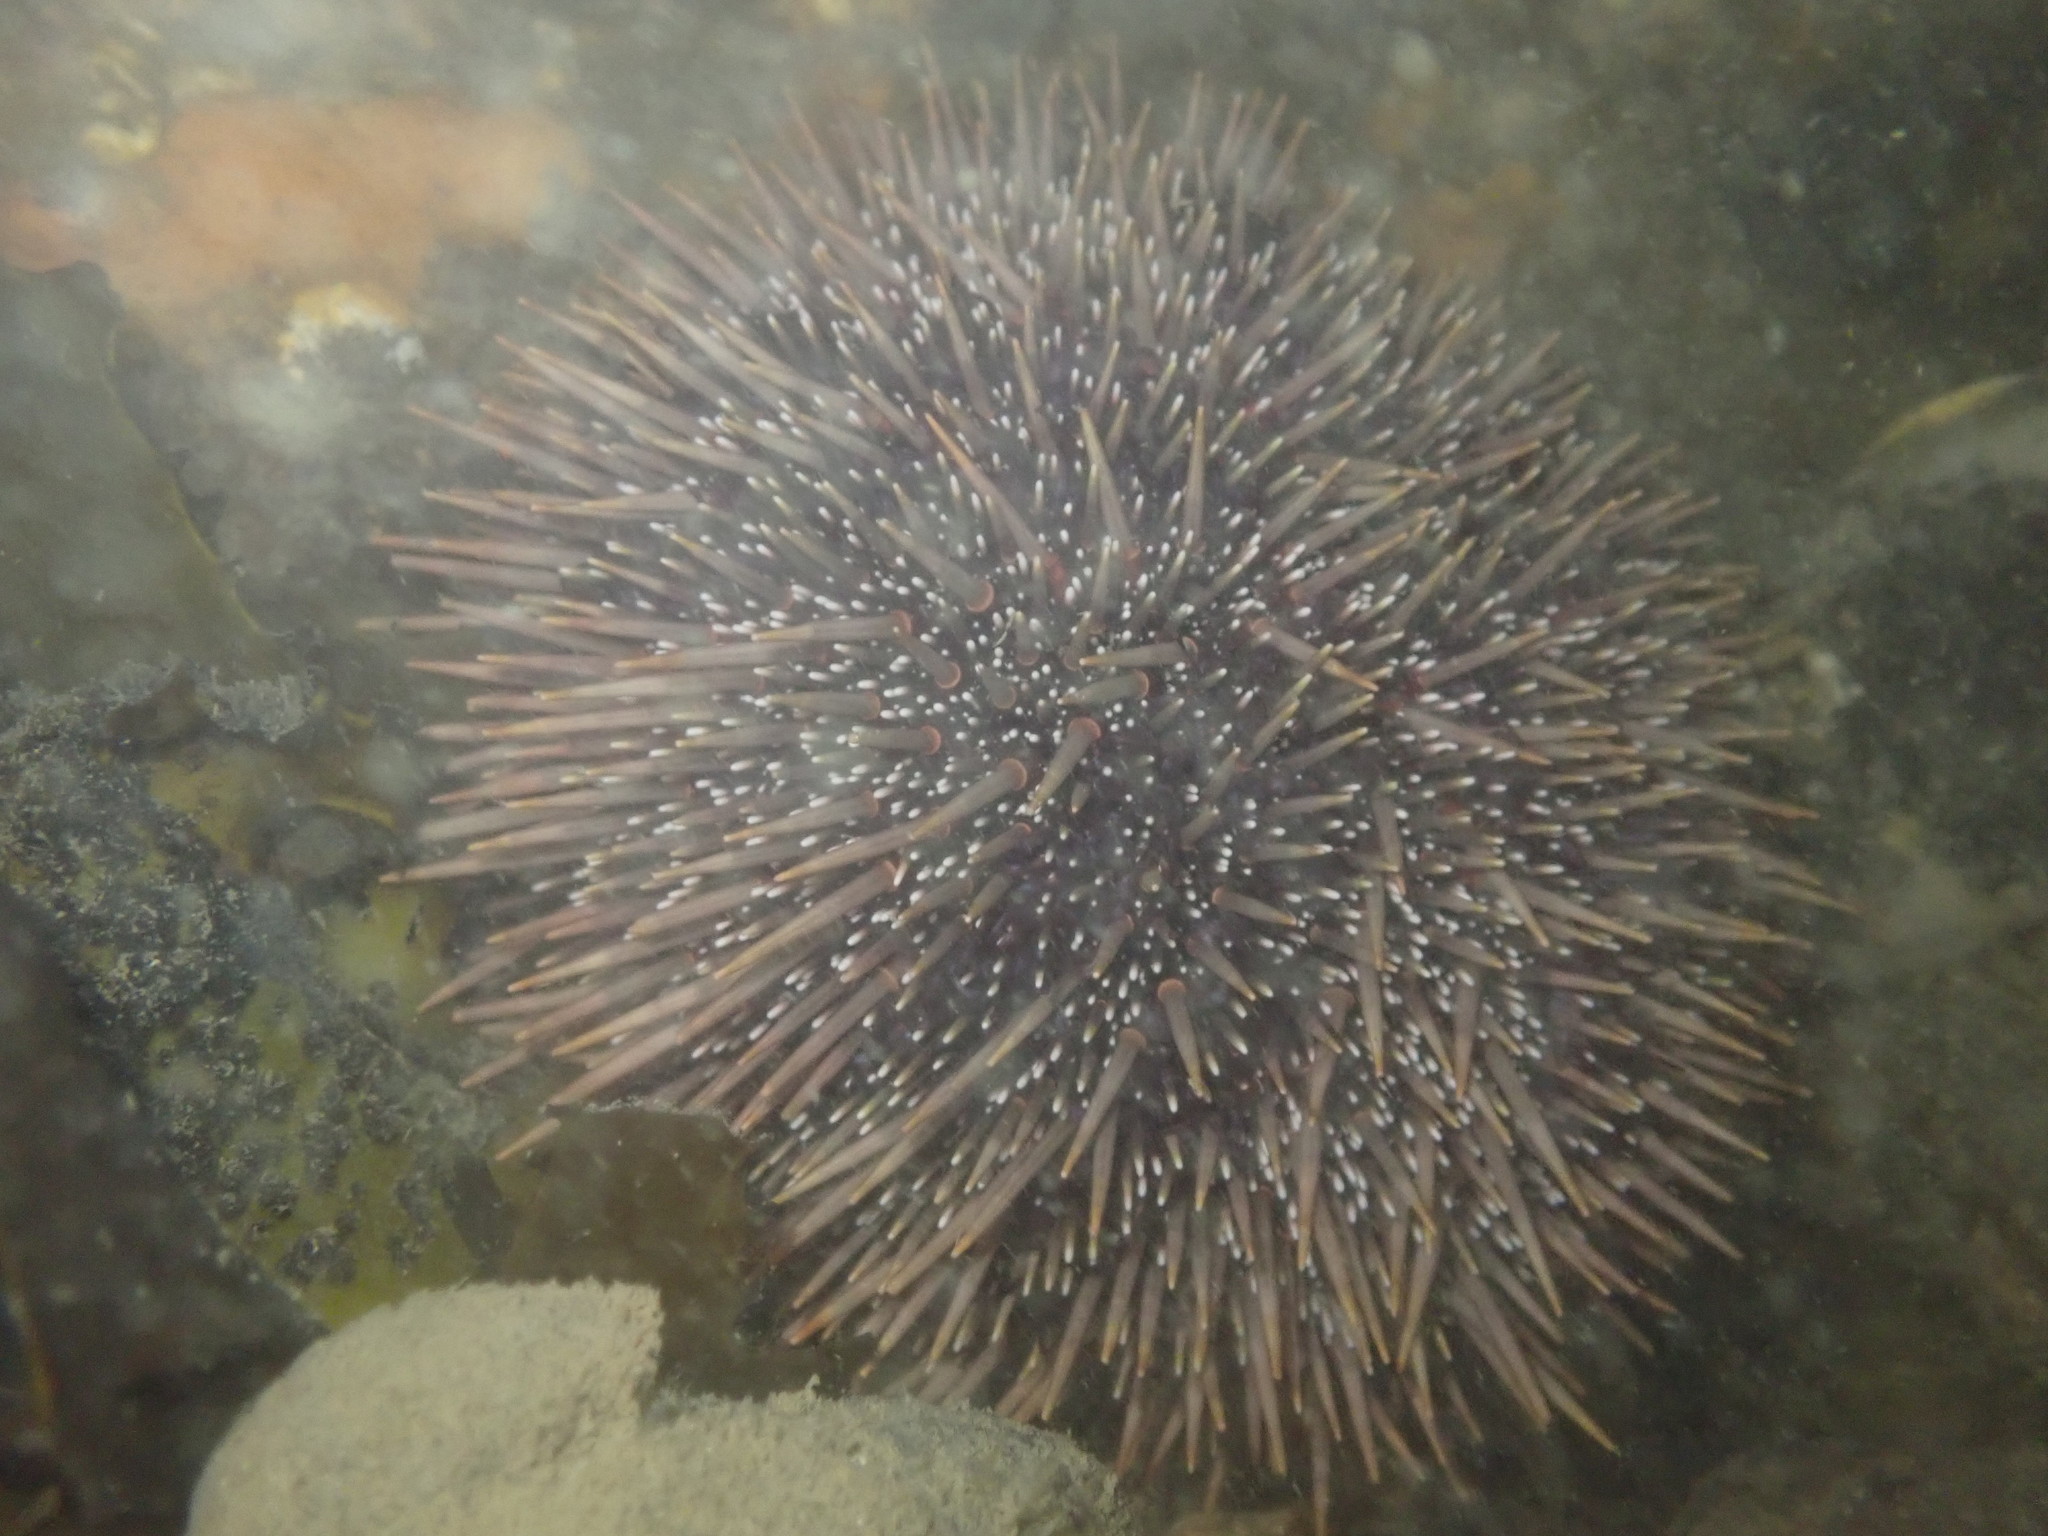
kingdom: Animalia
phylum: Echinodermata
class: Echinoidea
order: Camarodonta
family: Echinometridae
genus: Evechinus
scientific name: Evechinus chloroticus
